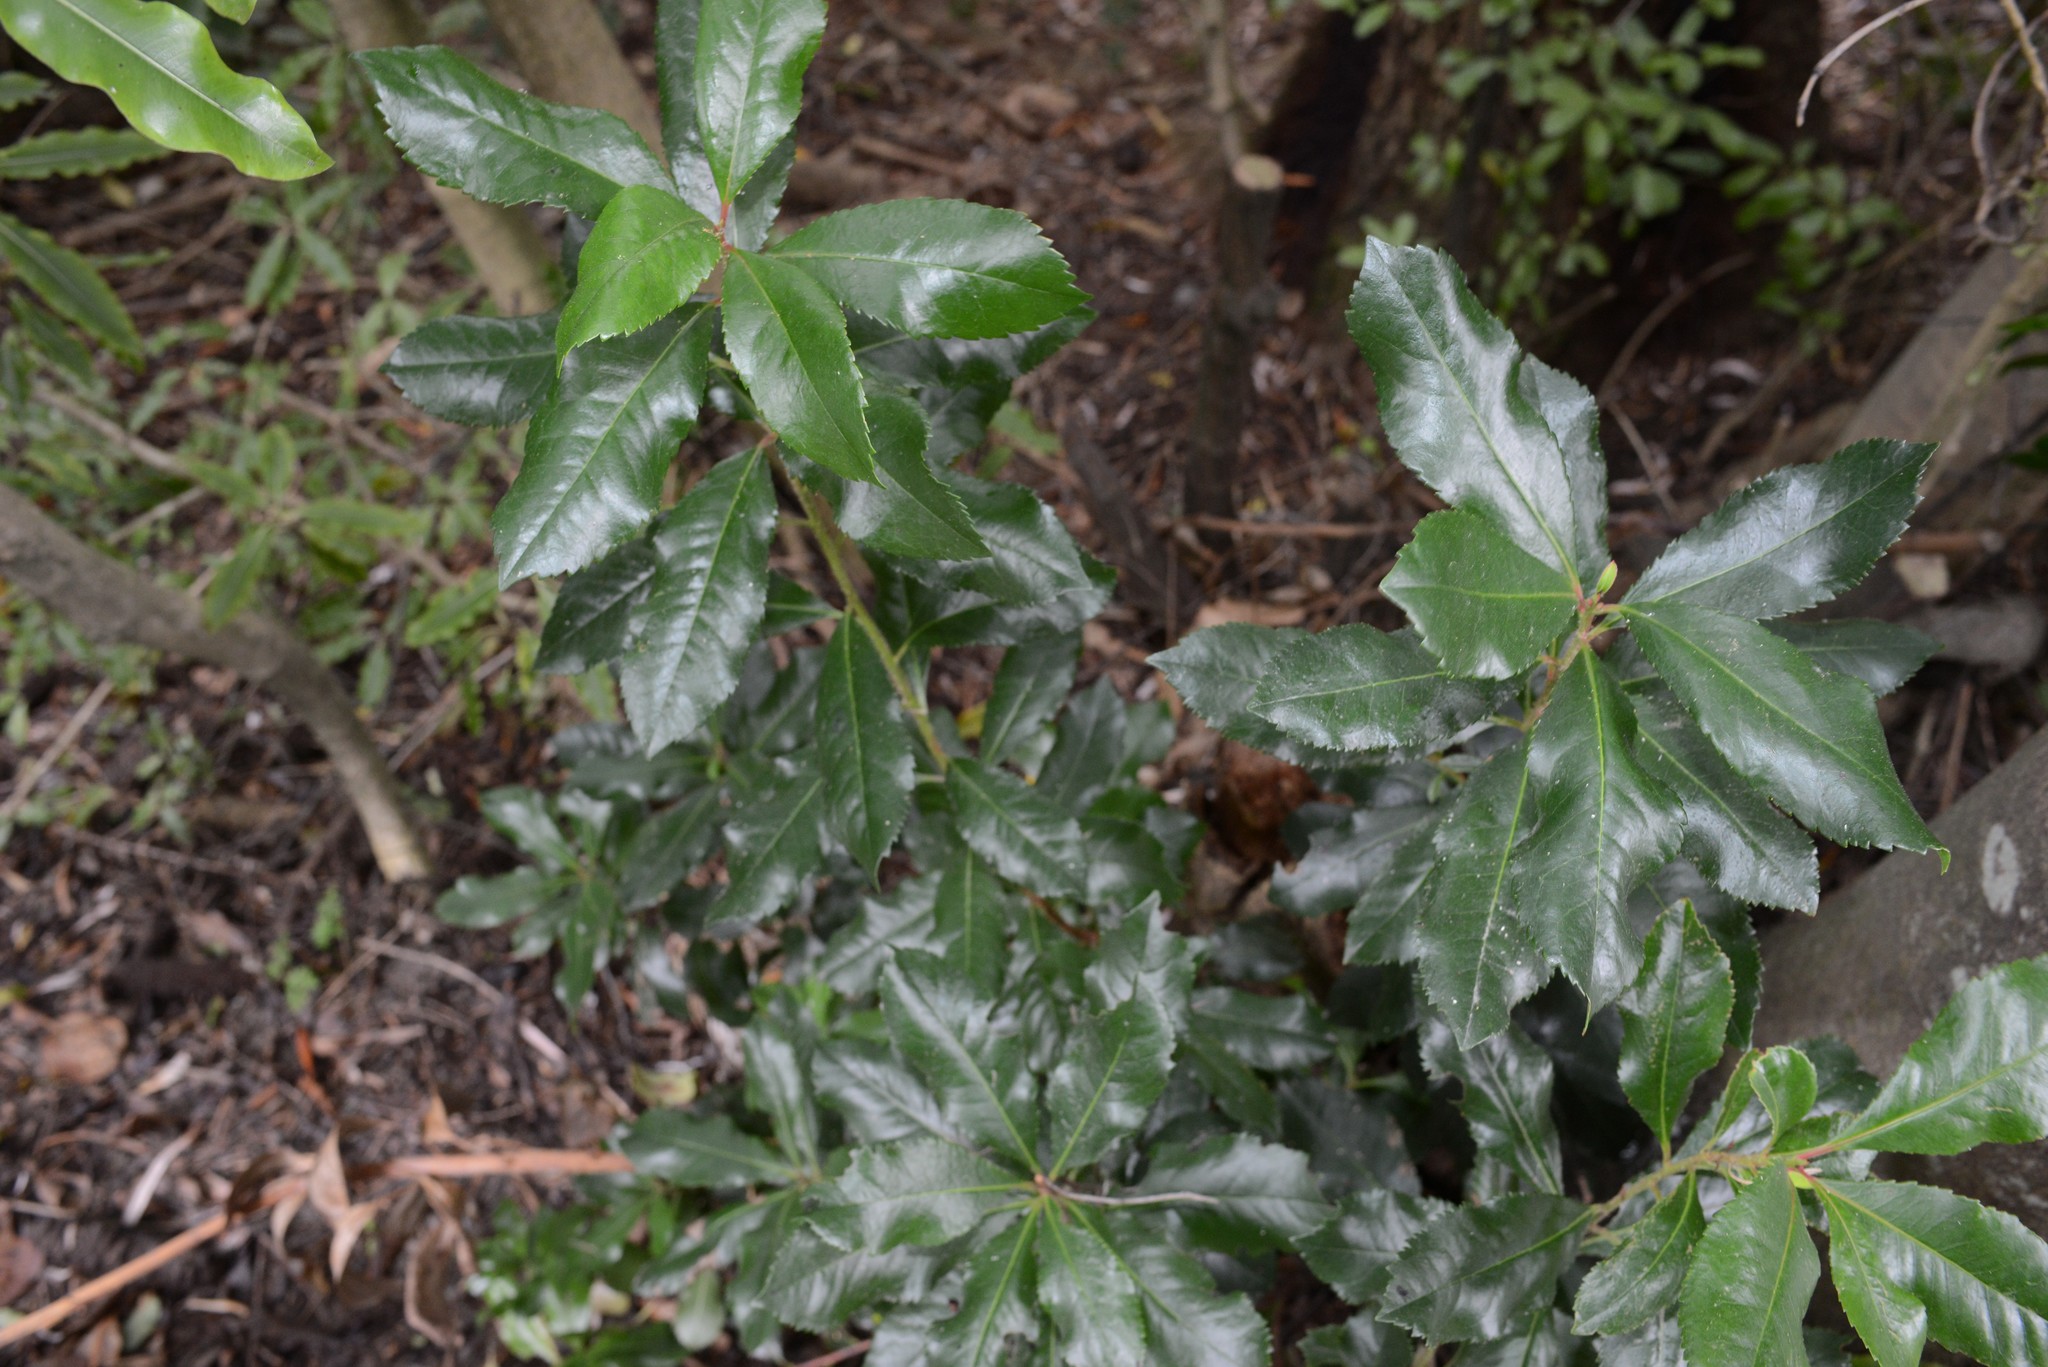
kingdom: Plantae
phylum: Tracheophyta
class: Magnoliopsida
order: Ericales
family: Ericaceae
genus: Arbutus
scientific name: Arbutus unedo
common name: Strawberry-tree
